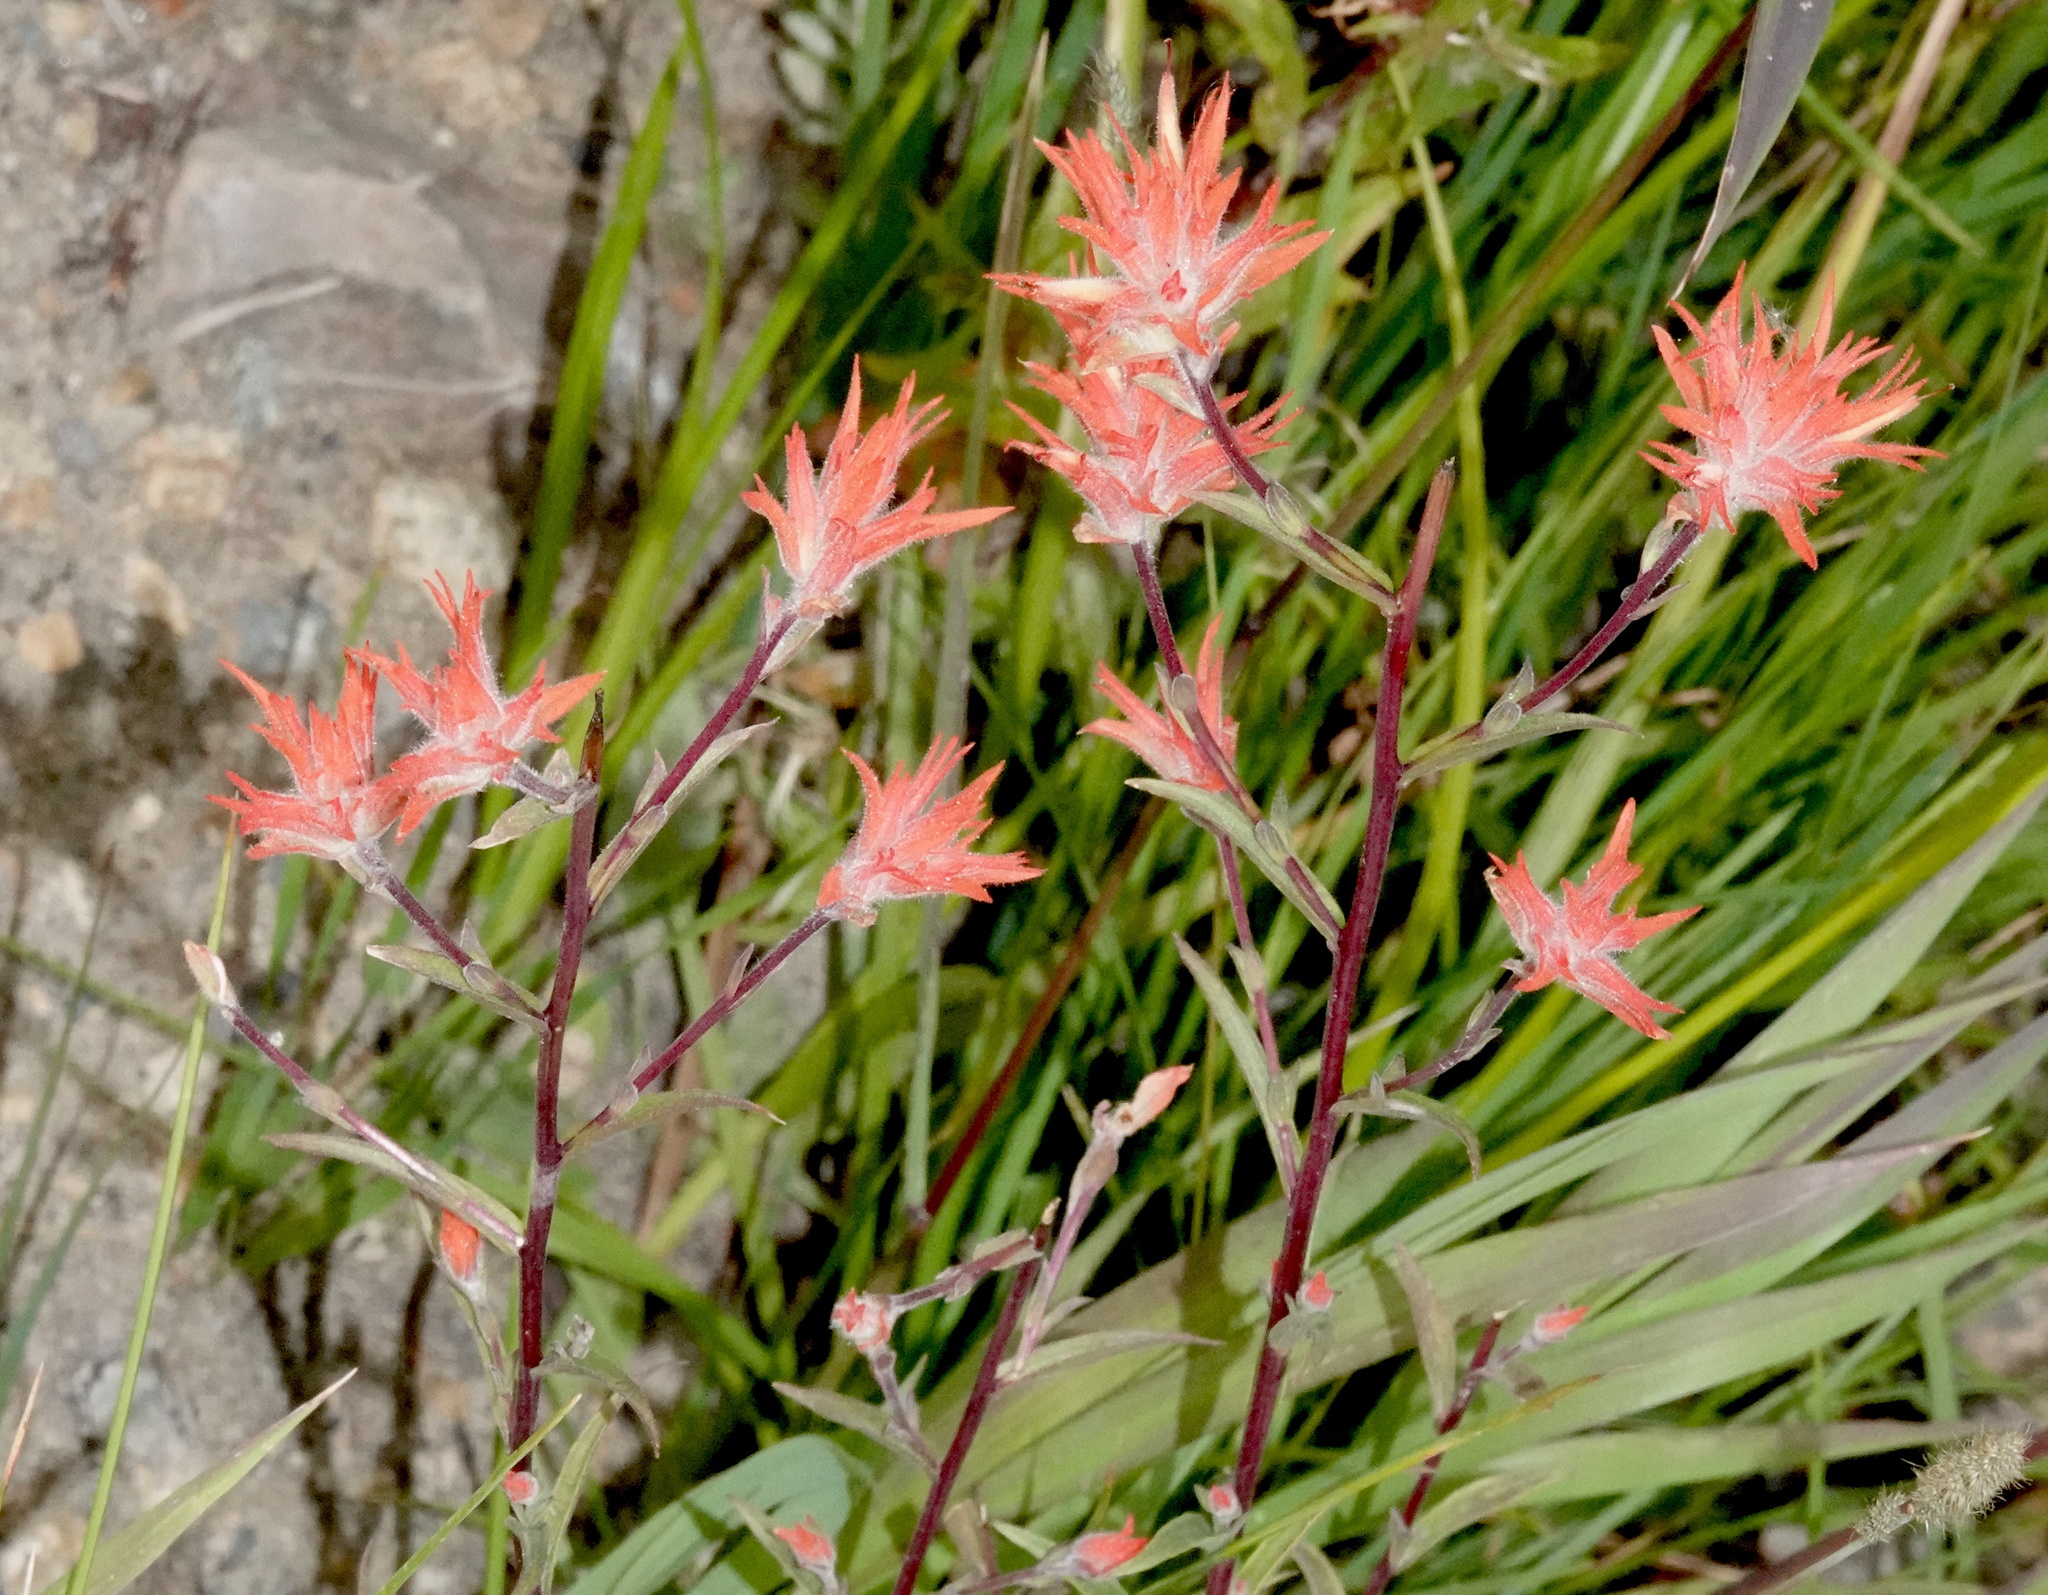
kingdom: Plantae
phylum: Tracheophyta
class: Magnoliopsida
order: Lamiales
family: Orobanchaceae
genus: Castilleja
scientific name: Castilleja miniata
